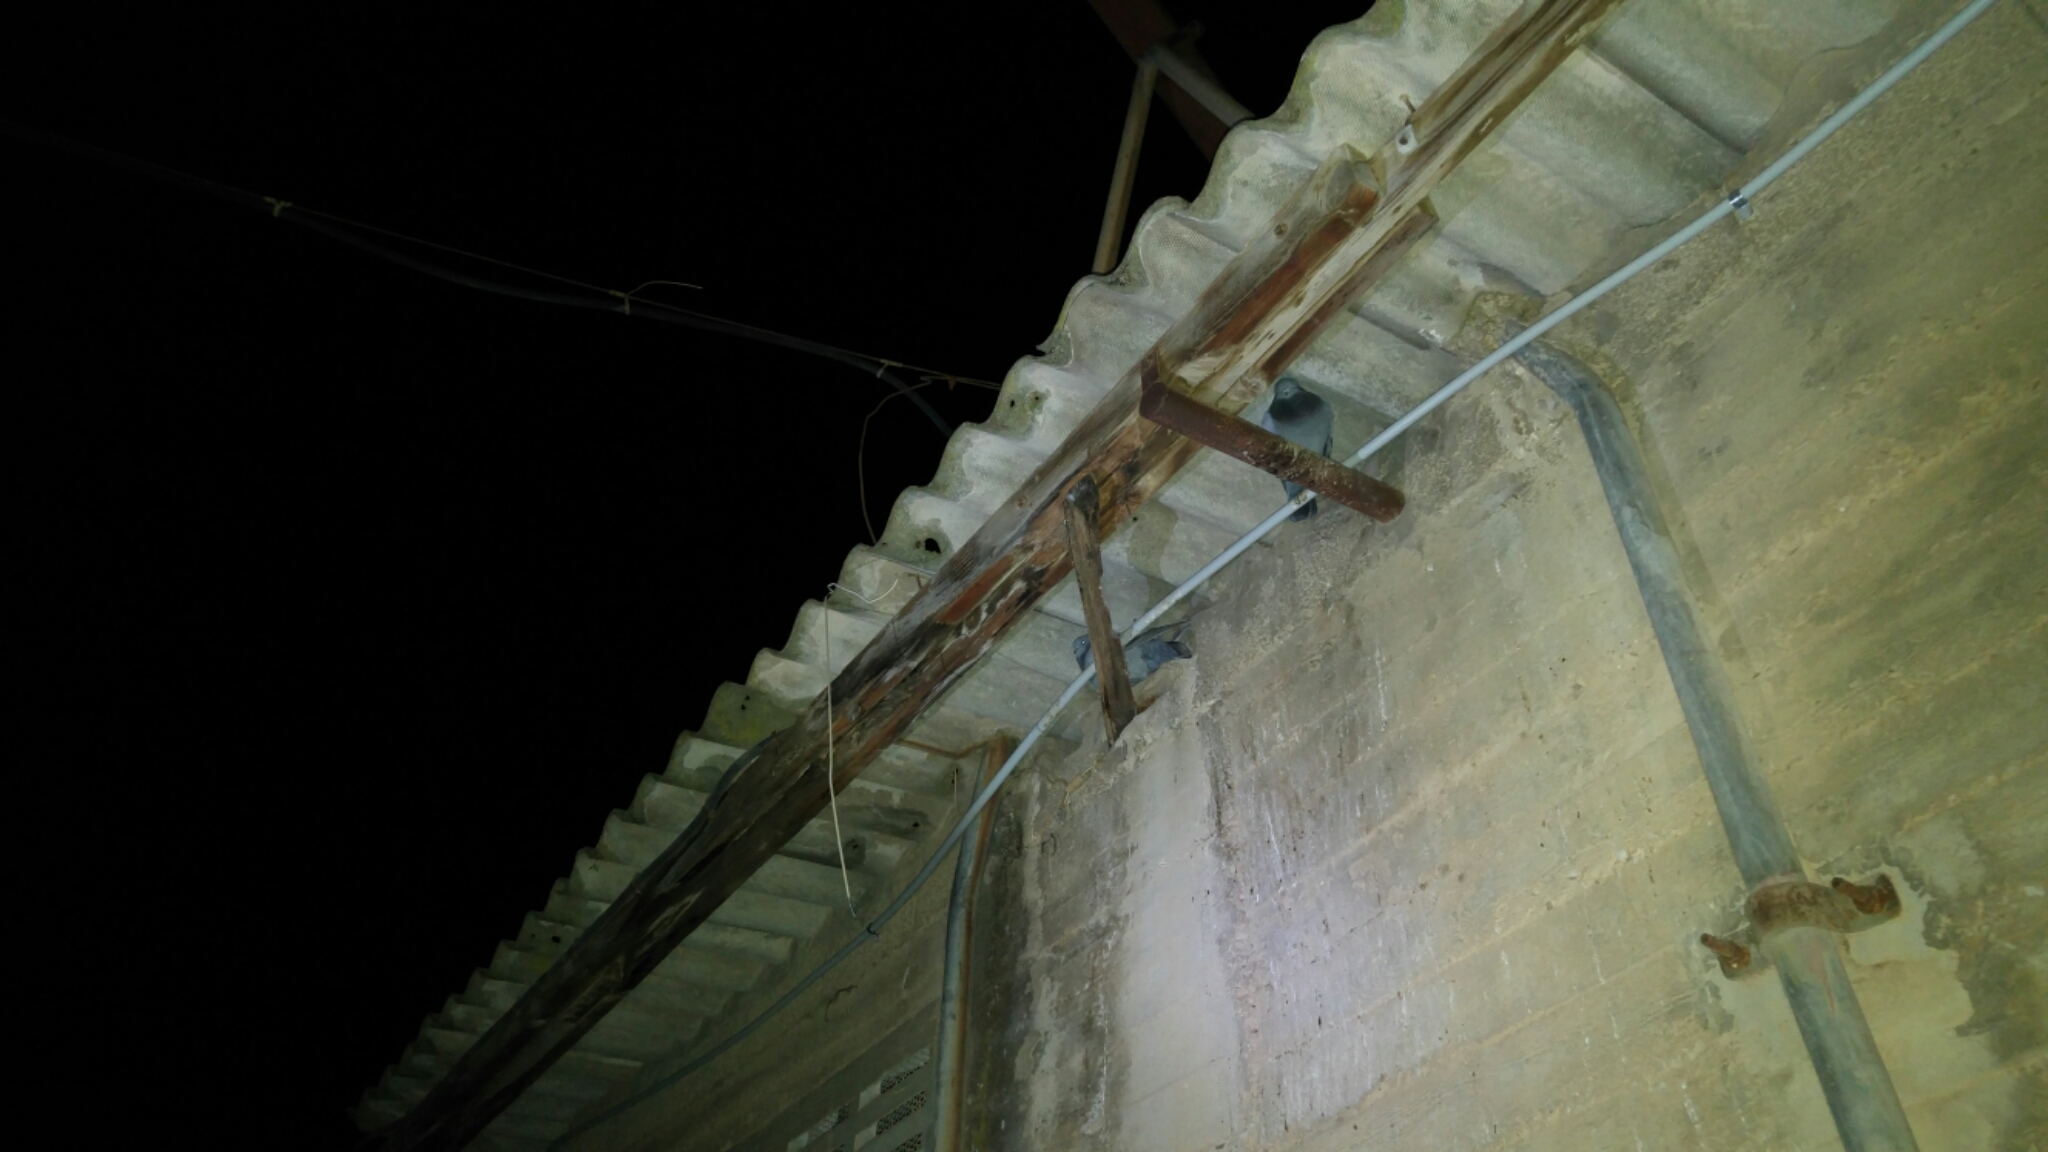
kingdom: Animalia
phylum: Chordata
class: Aves
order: Columbiformes
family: Columbidae
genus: Columba
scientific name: Columba livia
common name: Rock pigeon
